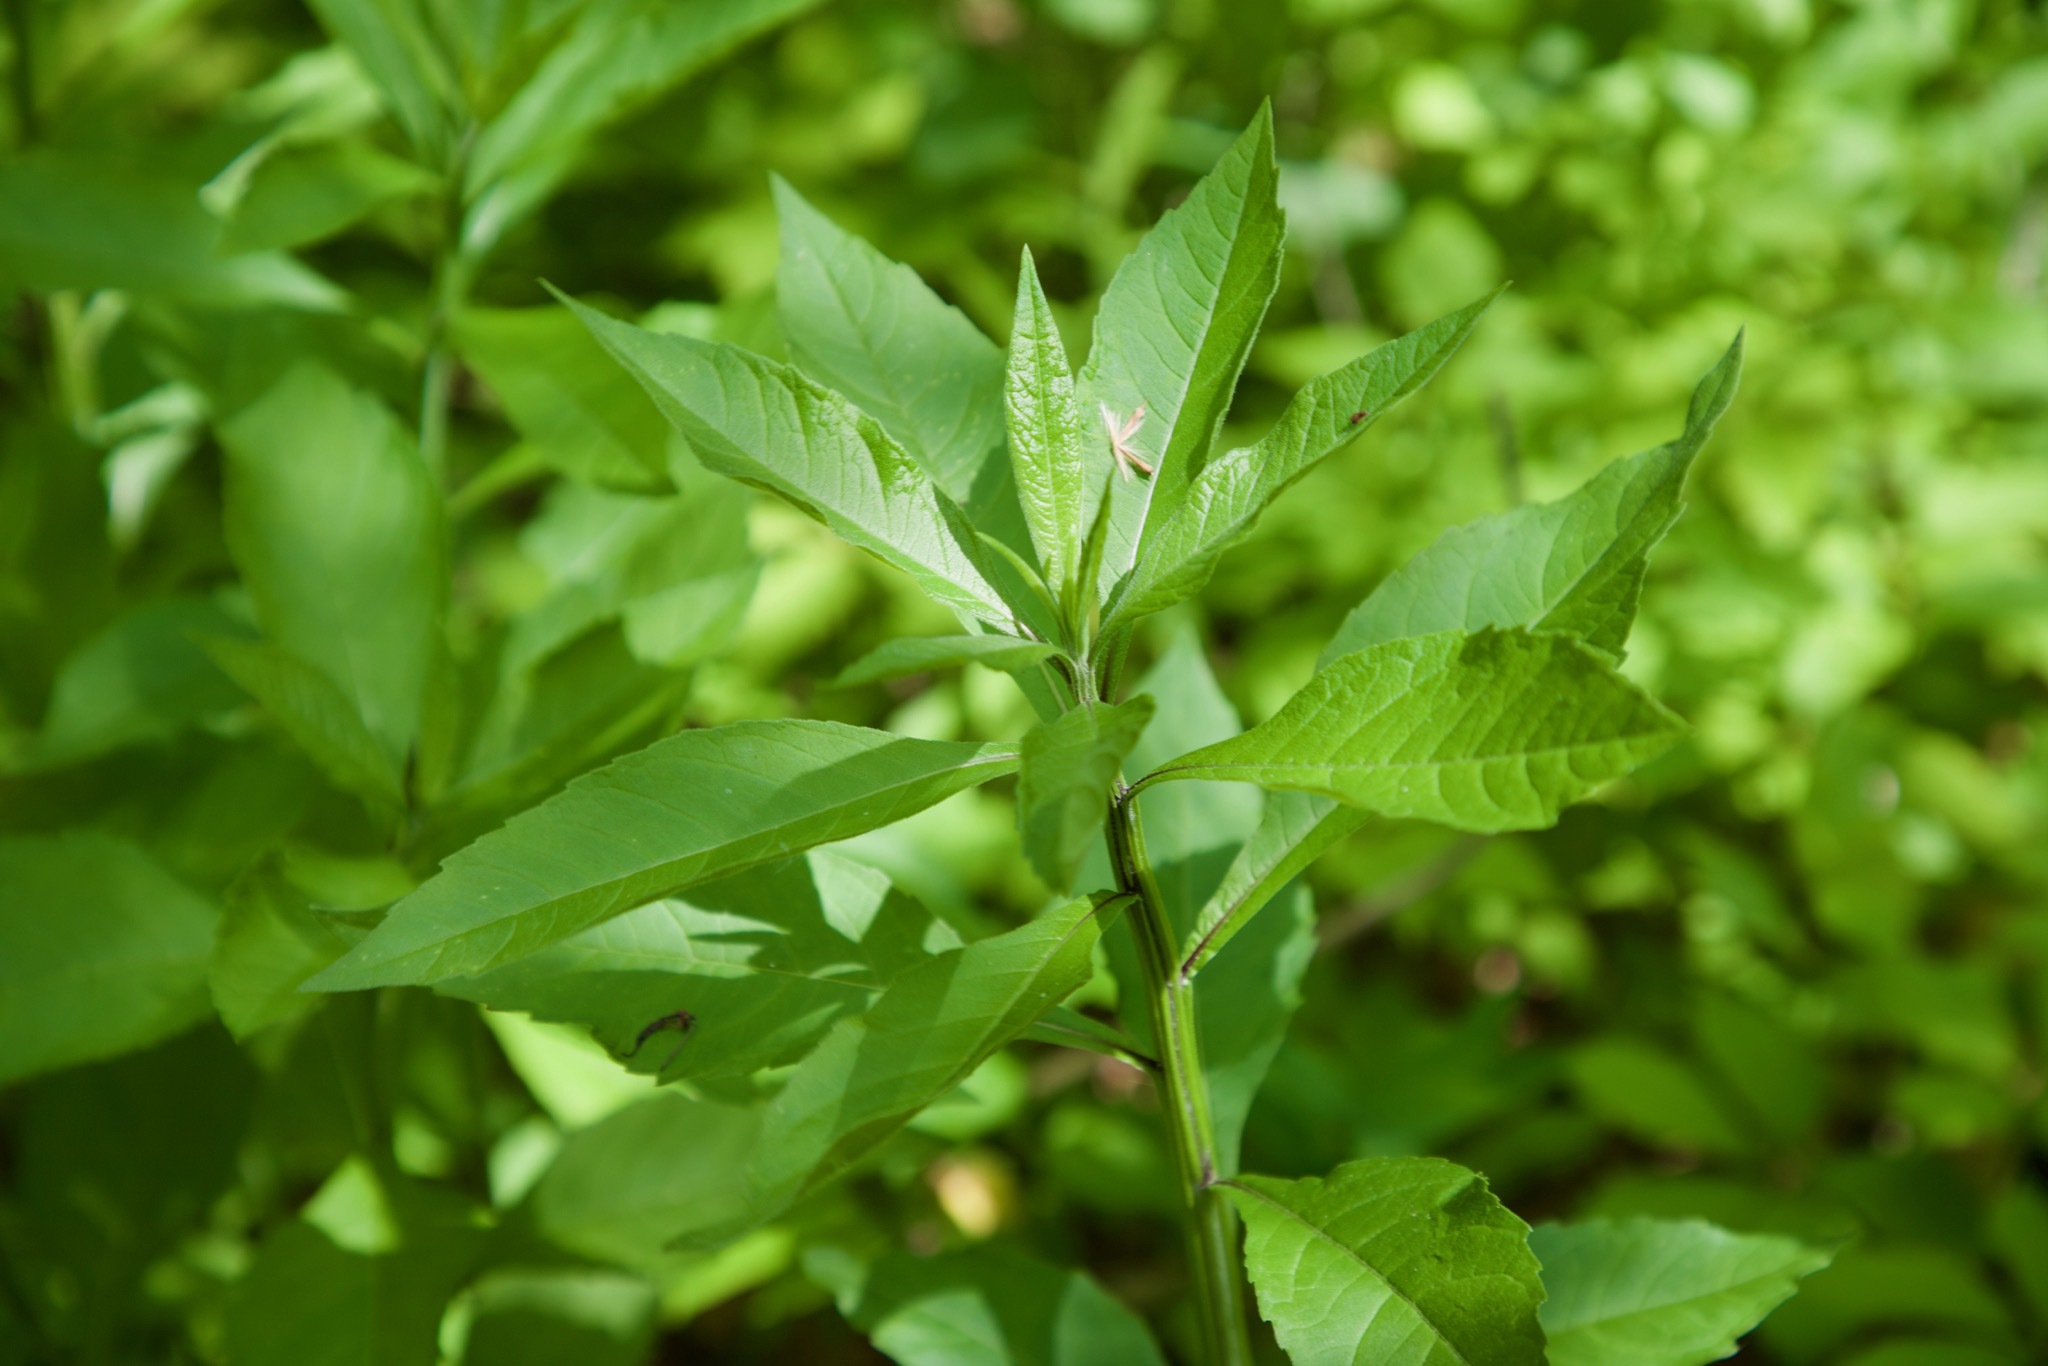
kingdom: Plantae
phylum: Tracheophyta
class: Magnoliopsida
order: Asterales
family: Asteraceae
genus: Verbesina
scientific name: Verbesina alternifolia
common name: Wingstem
